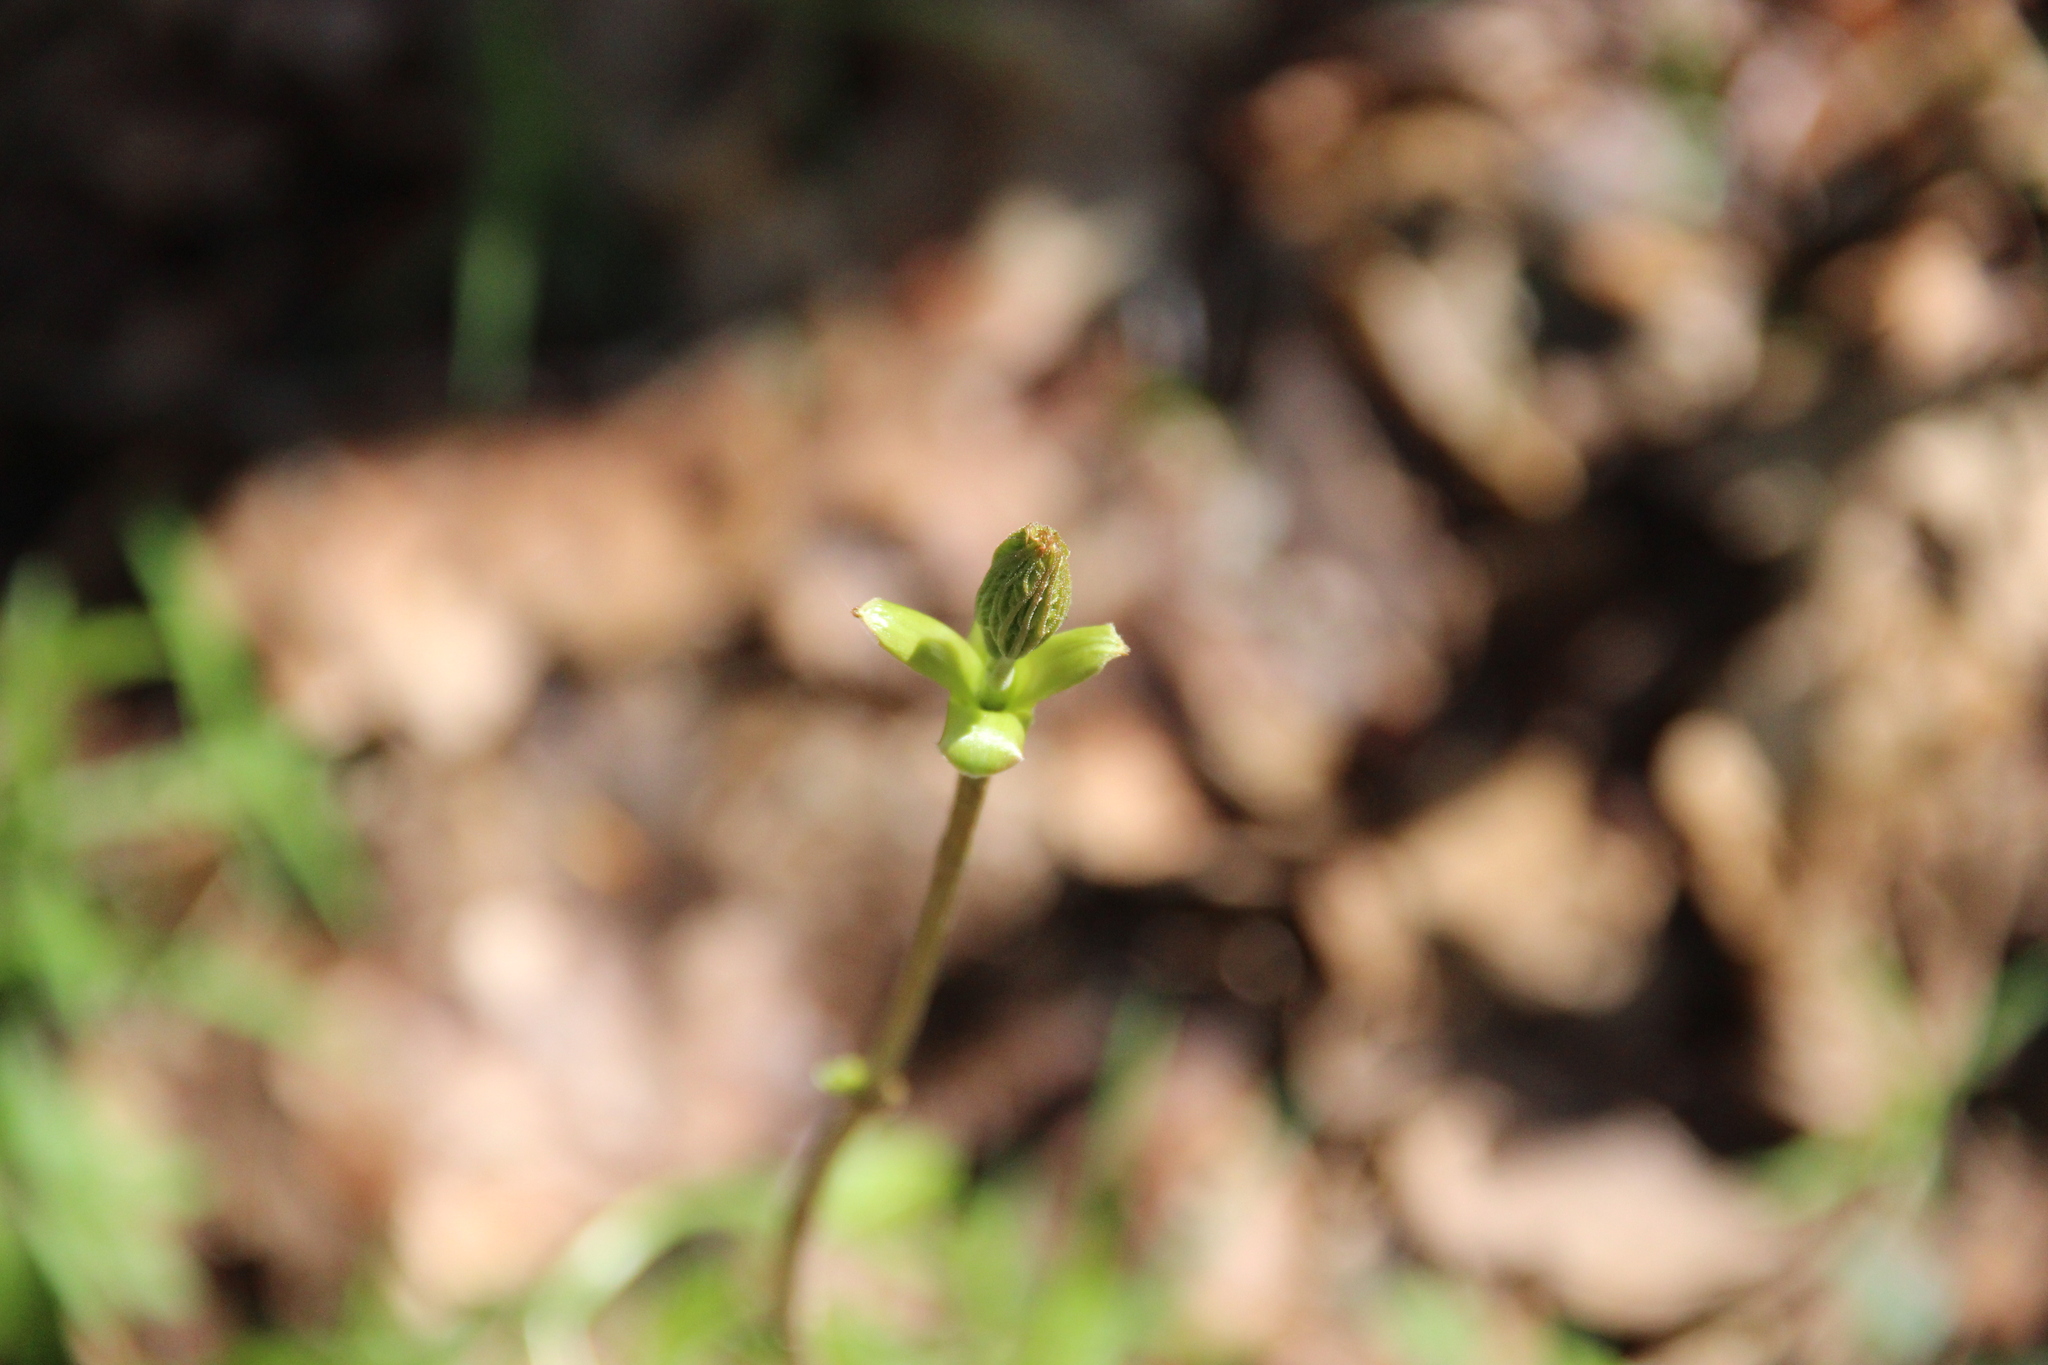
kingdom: Plantae
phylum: Tracheophyta
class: Magnoliopsida
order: Sapindales
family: Sapindaceae
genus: Acer
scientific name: Acer platanoides
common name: Norway maple
